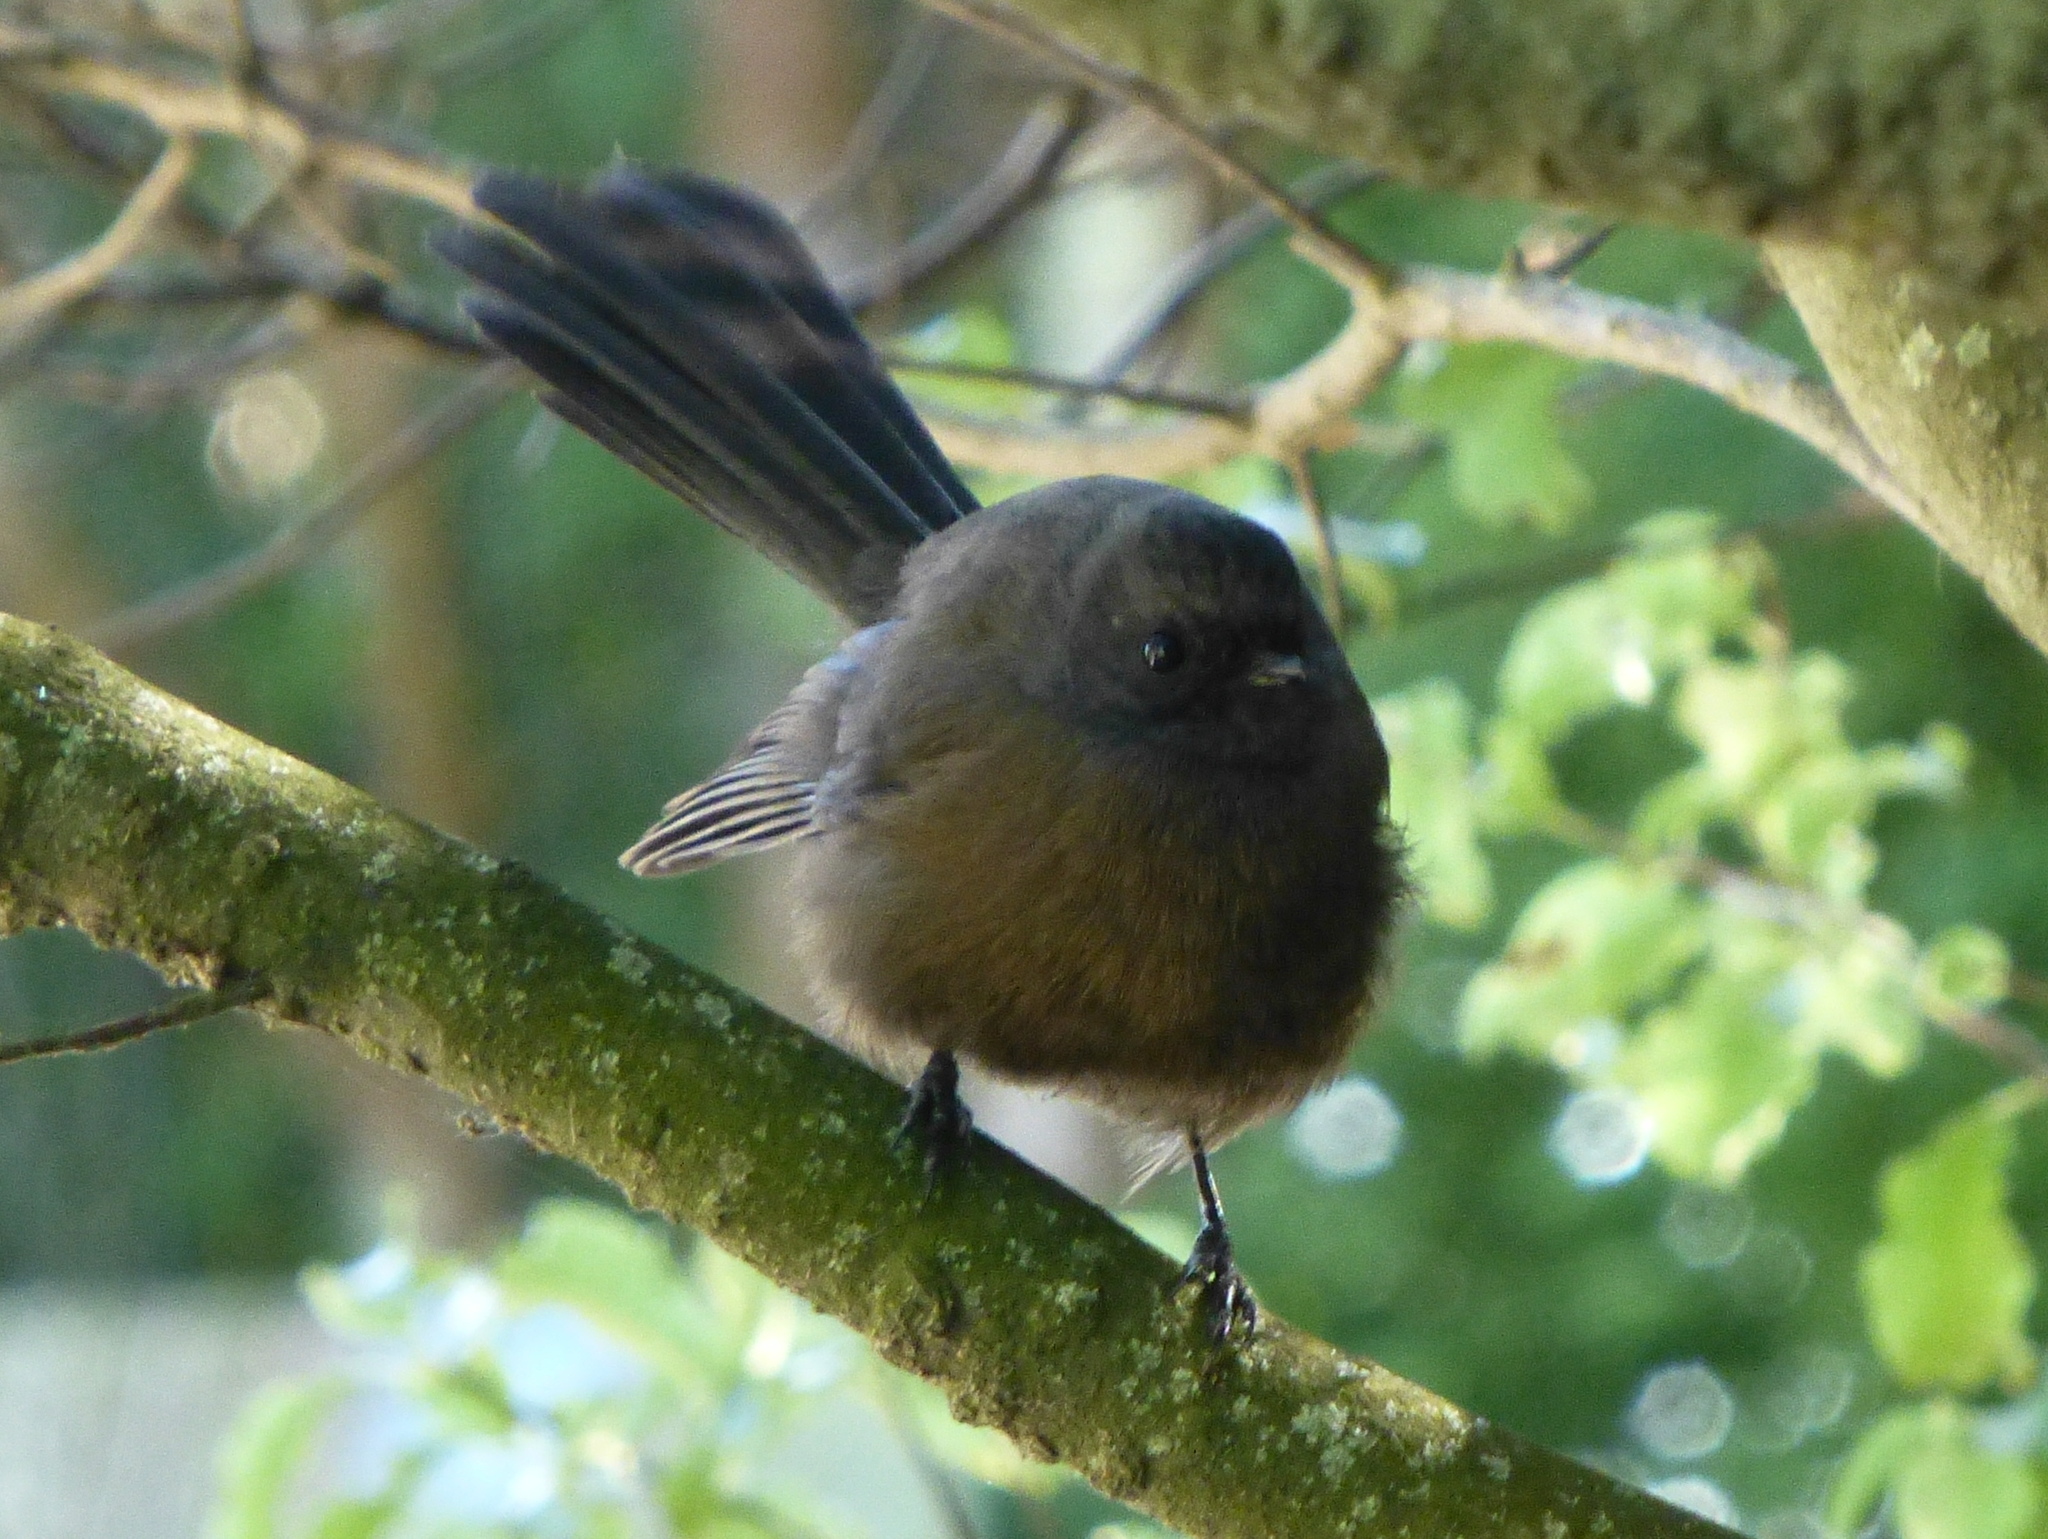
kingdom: Animalia
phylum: Chordata
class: Aves
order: Passeriformes
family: Rhipiduridae
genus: Rhipidura
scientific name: Rhipidura fuliginosa
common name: New zealand fantail
